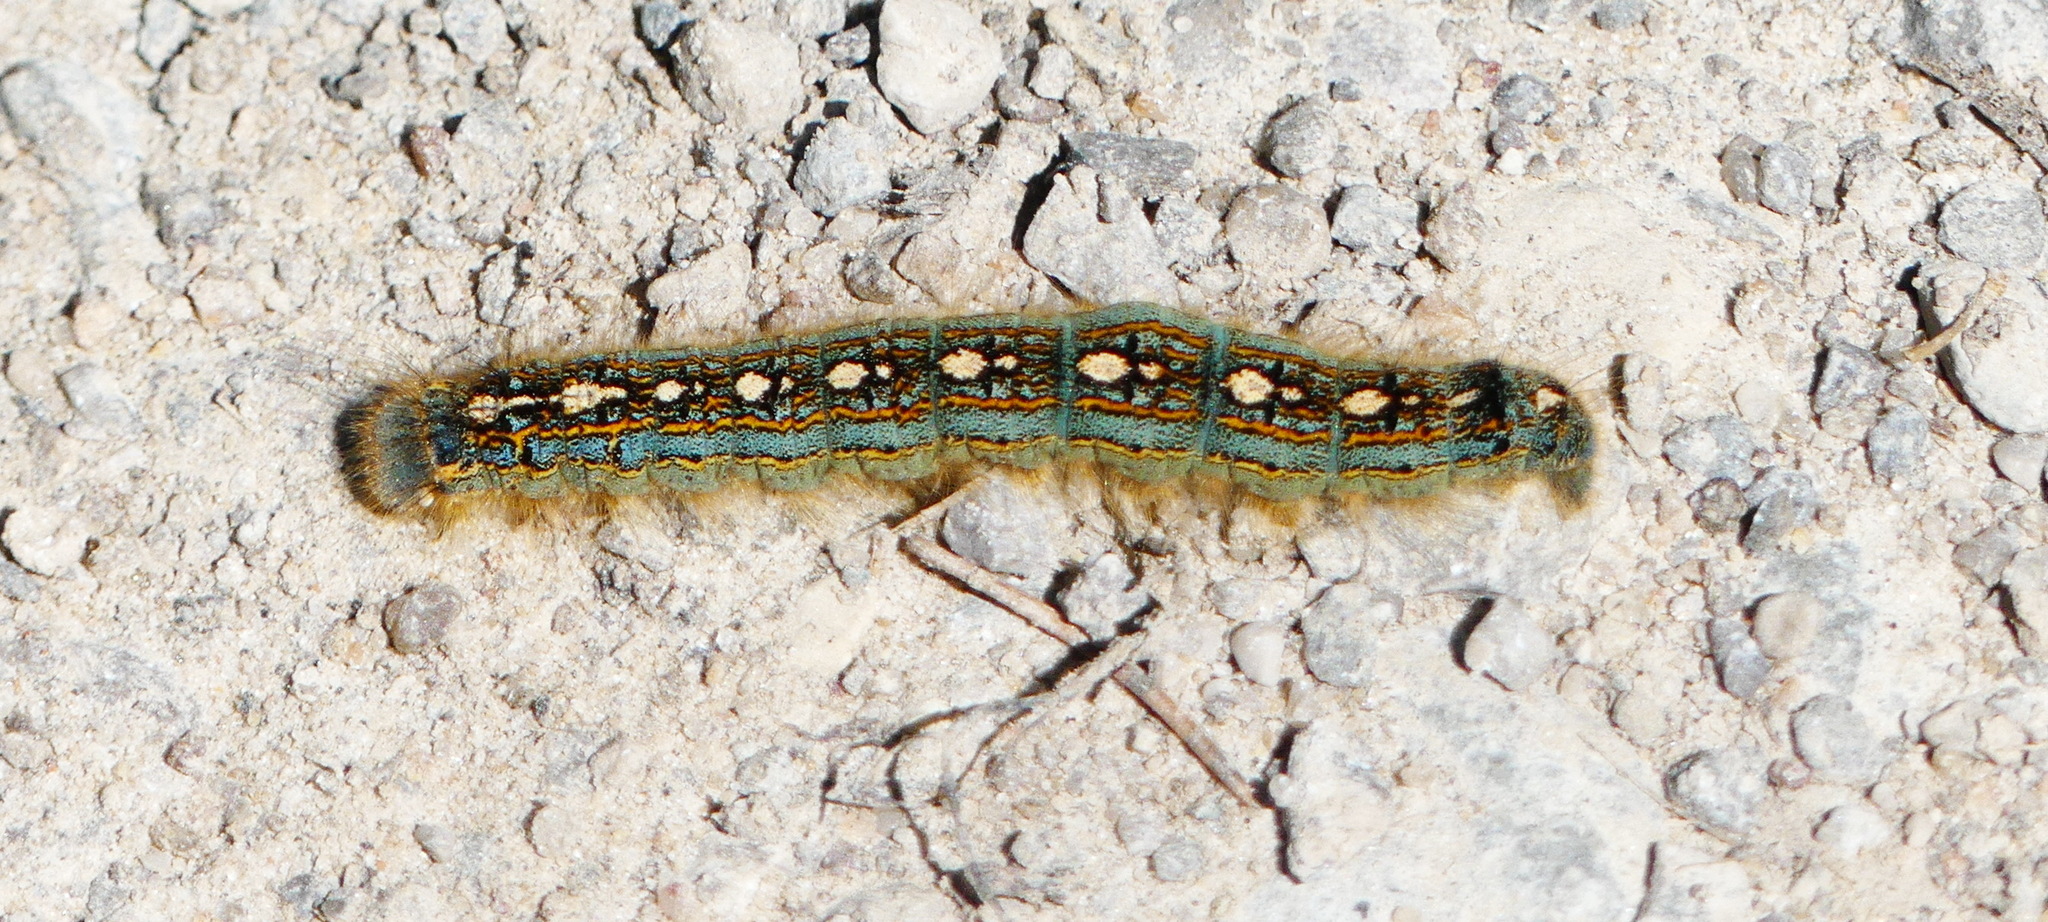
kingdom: Animalia
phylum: Arthropoda
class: Insecta
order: Lepidoptera
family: Lasiocampidae
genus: Malacosoma
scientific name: Malacosoma disstria
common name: Forest tent caterpillar
